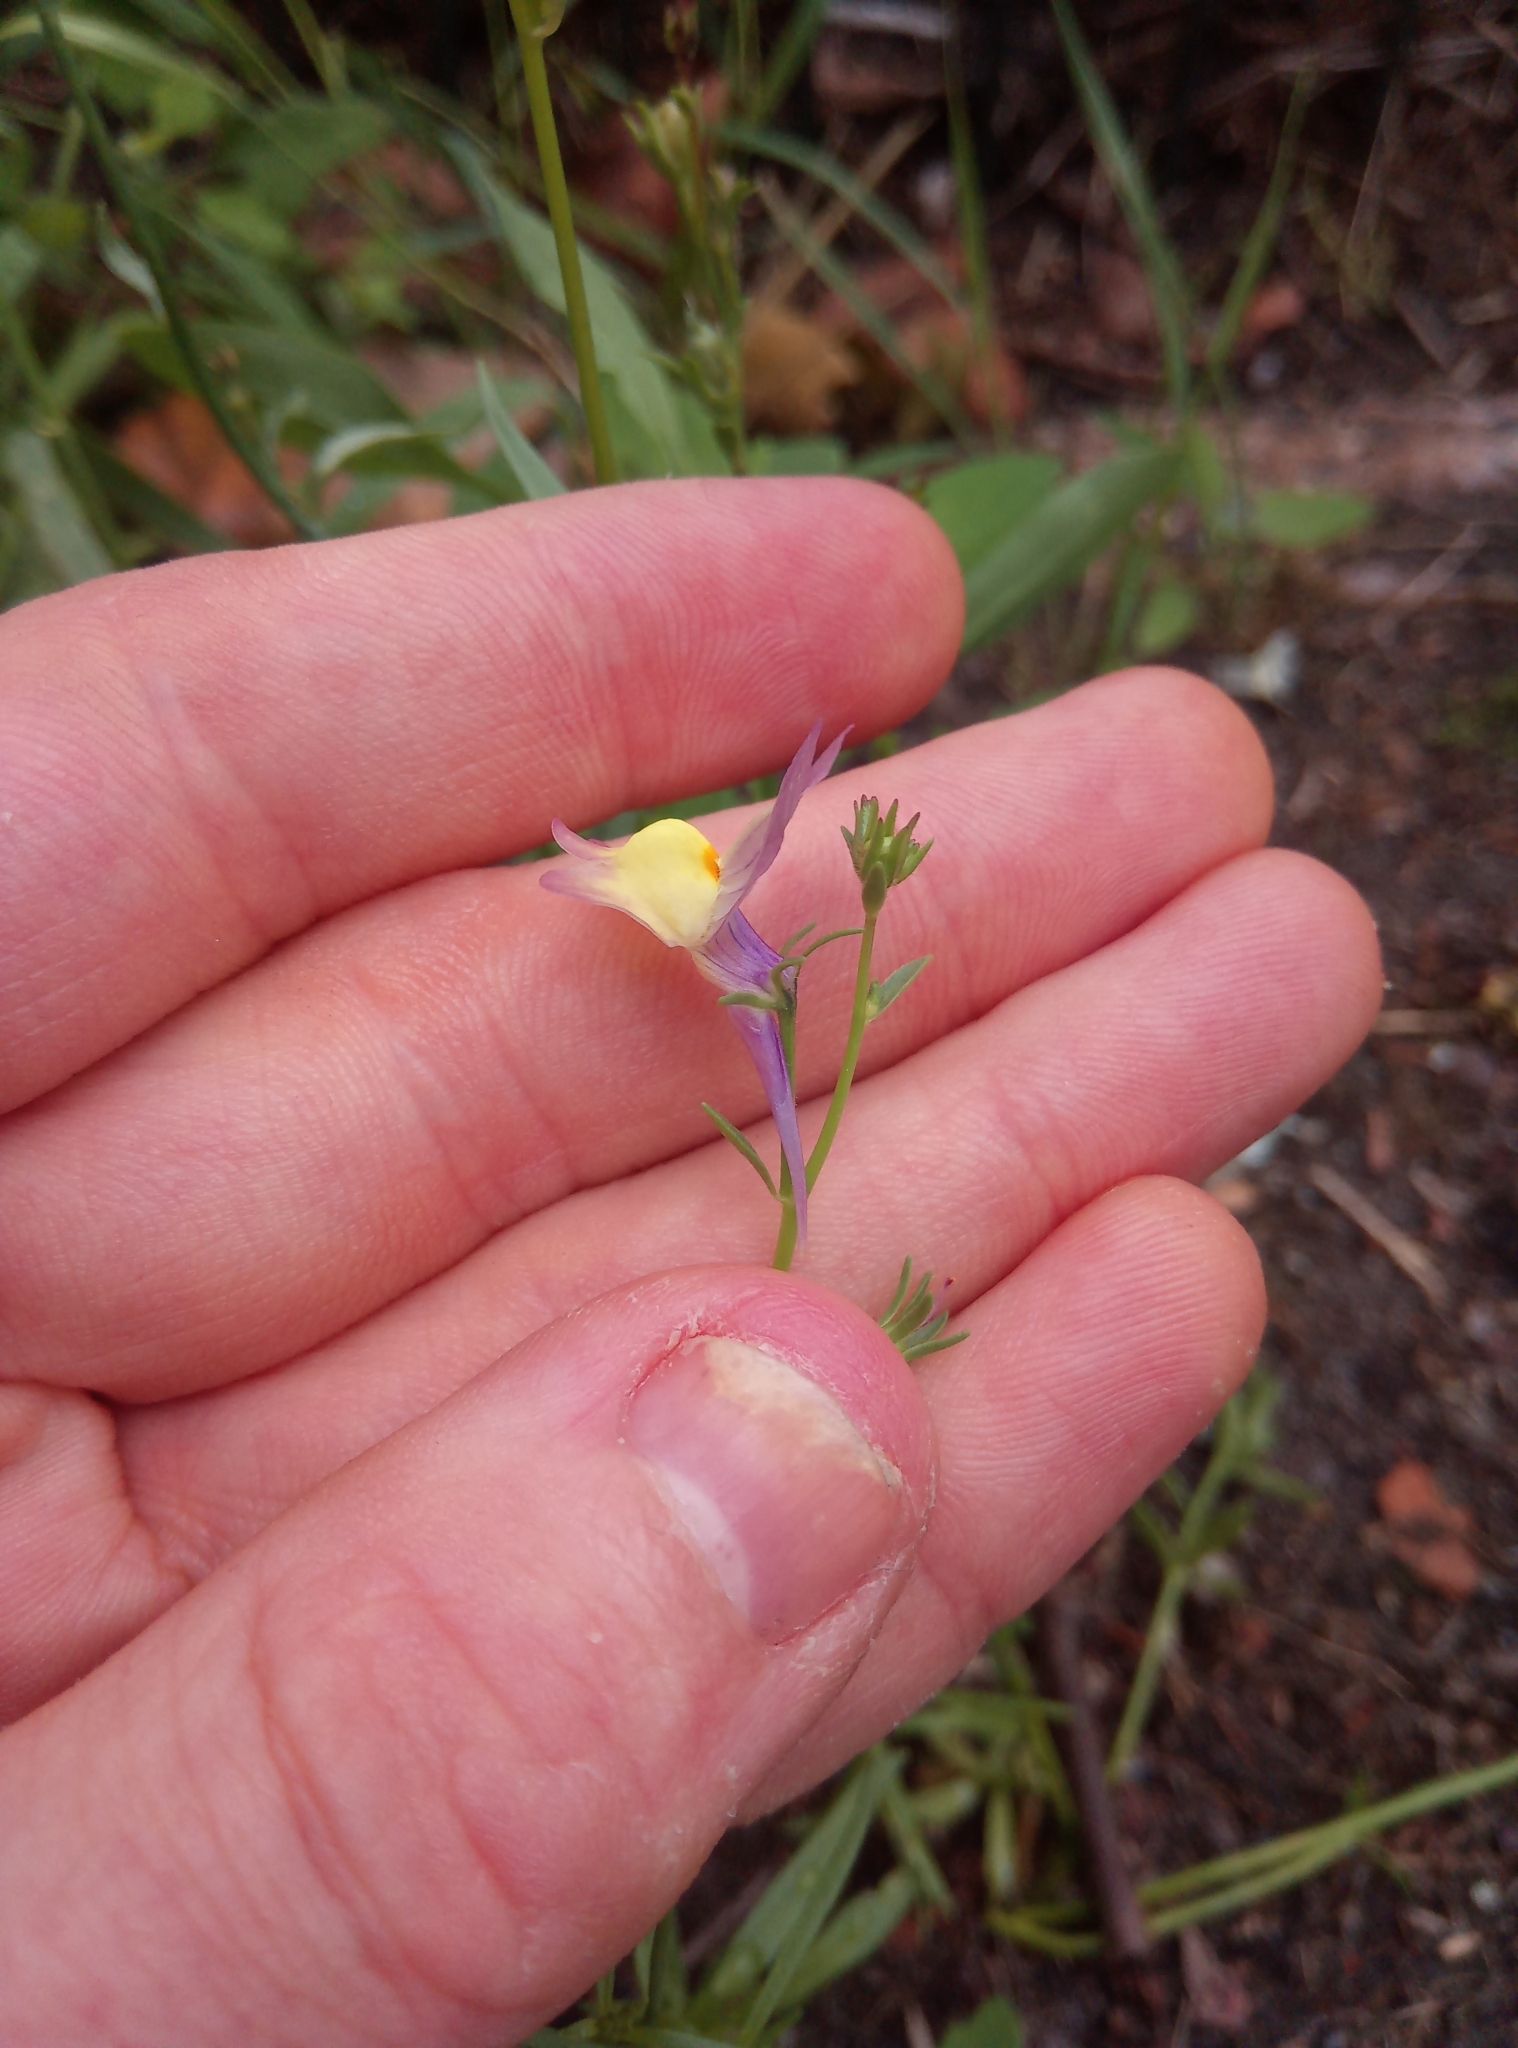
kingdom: Plantae
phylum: Tracheophyta
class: Magnoliopsida
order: Lamiales
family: Plantaginaceae
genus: Linaria
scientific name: Linaria maroccana
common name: Moroccan toadflax
